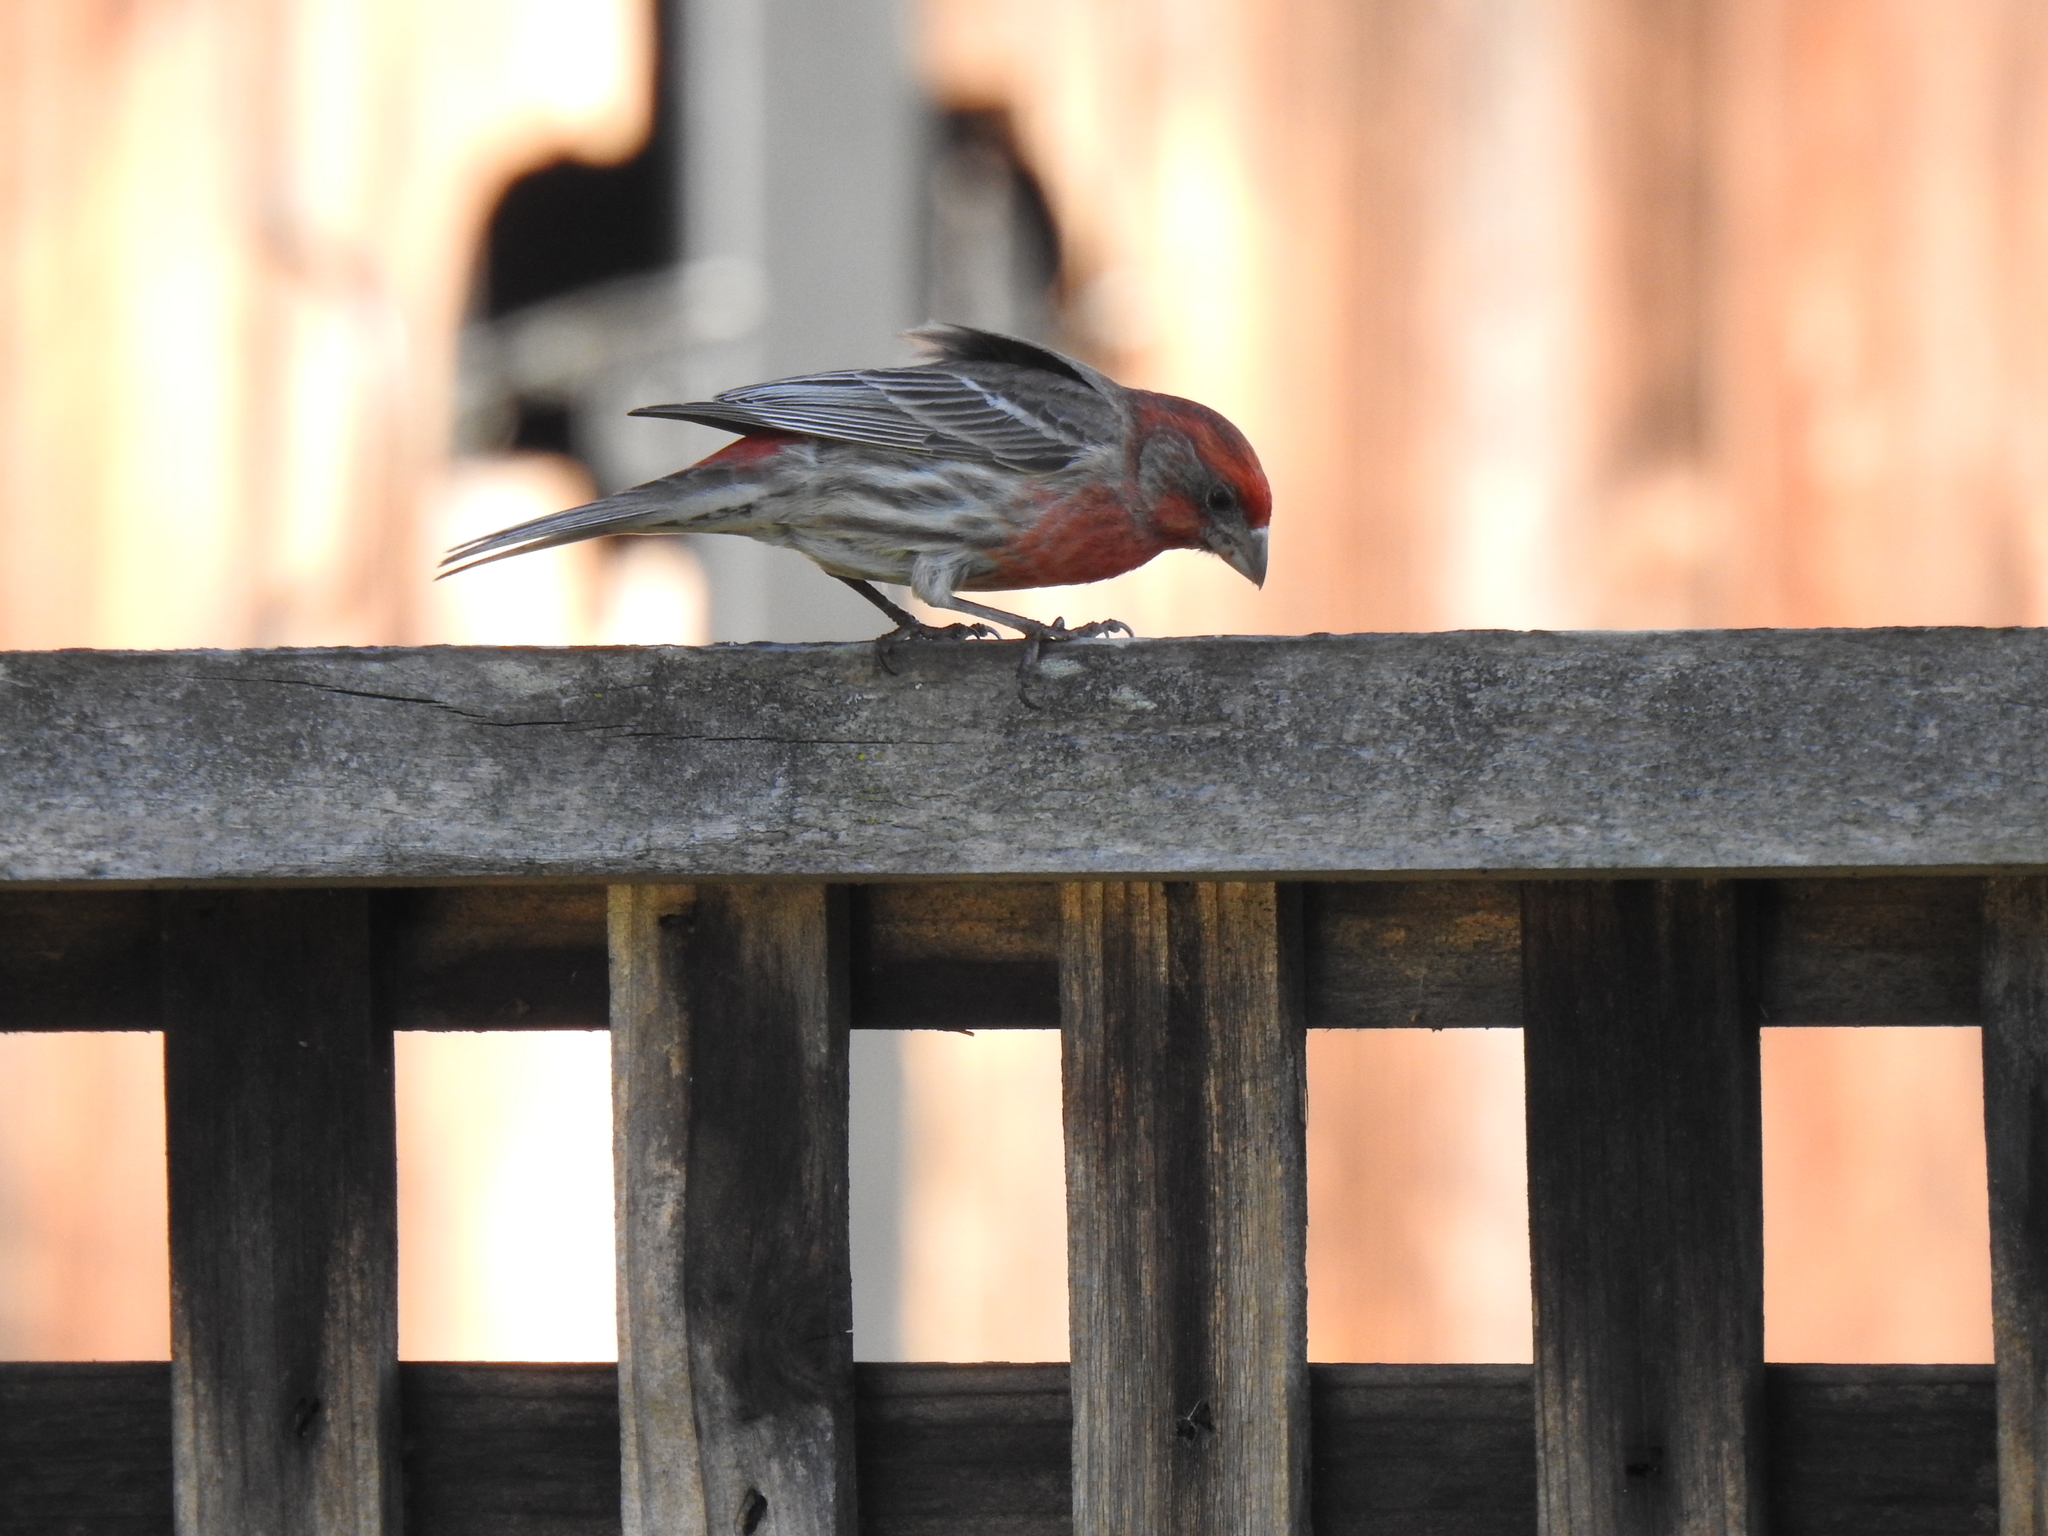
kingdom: Animalia
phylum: Chordata
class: Aves
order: Passeriformes
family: Fringillidae
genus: Haemorhous
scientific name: Haemorhous mexicanus
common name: House finch
